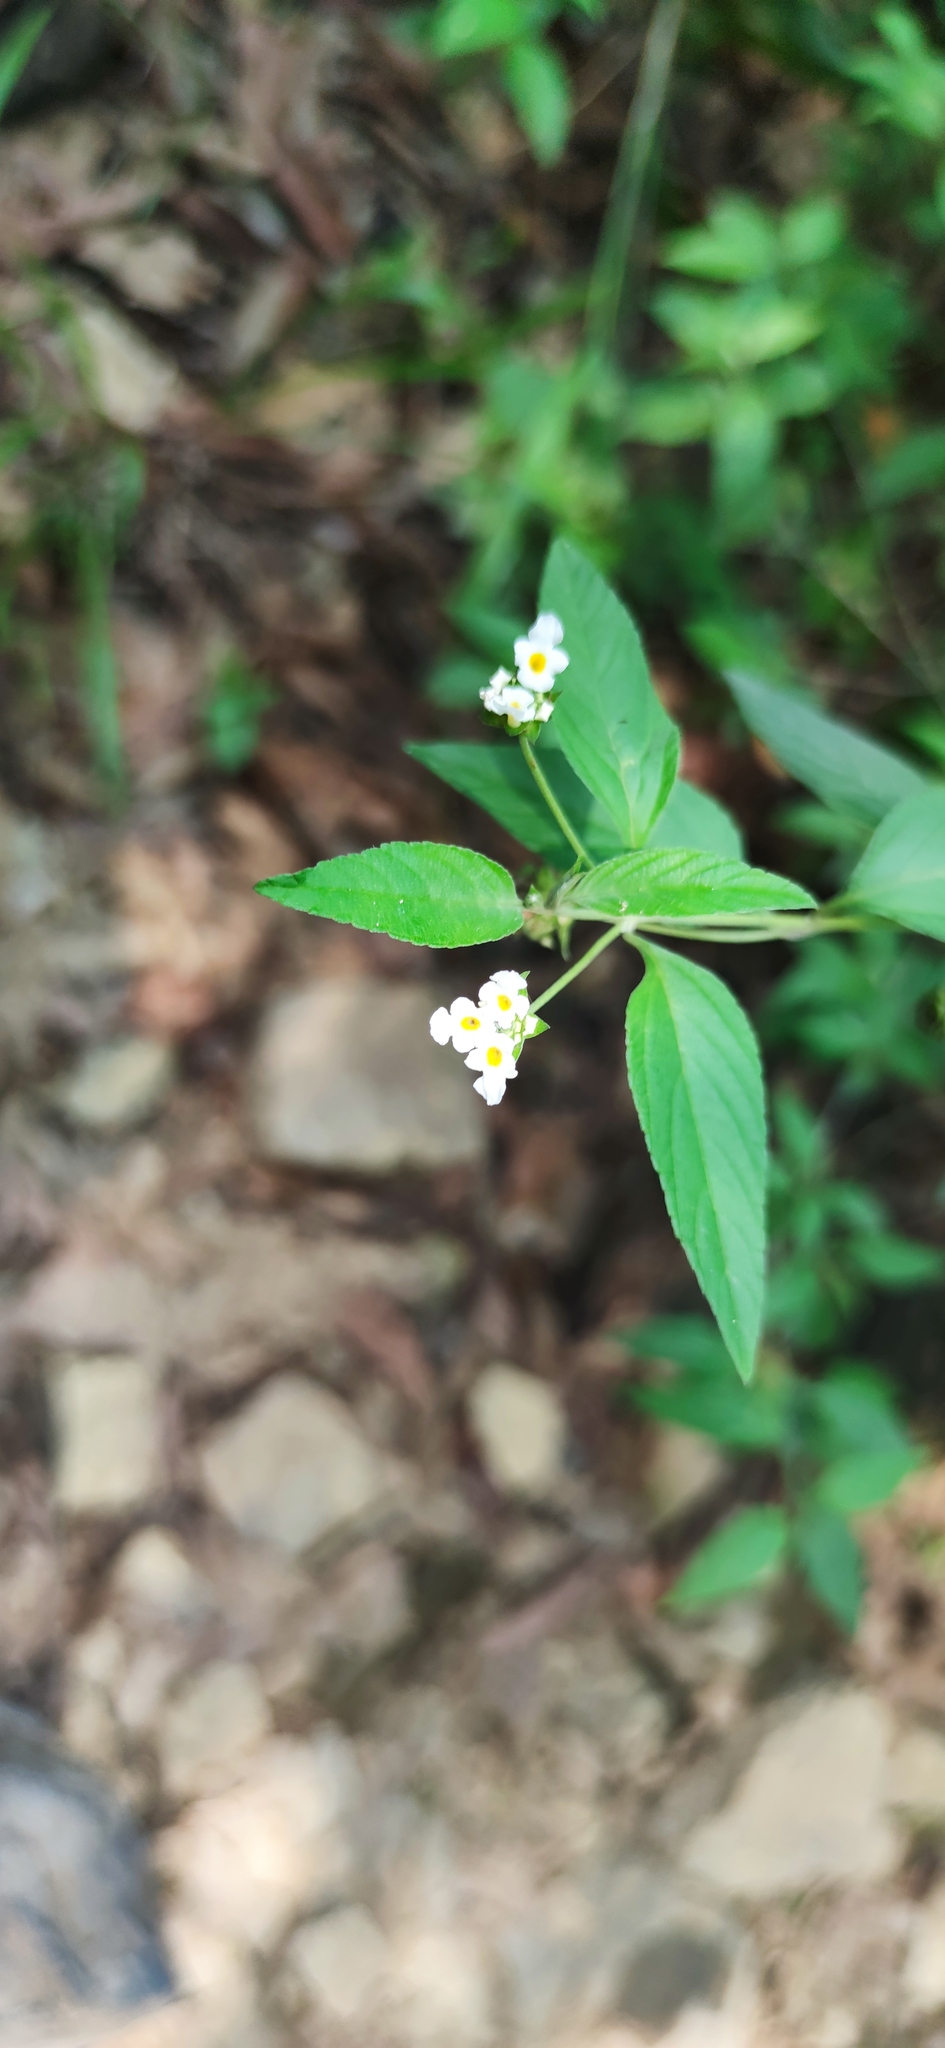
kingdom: Plantae
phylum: Tracheophyta
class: Magnoliopsida
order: Lamiales
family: Verbenaceae
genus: Lantana
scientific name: Lantana canescens
